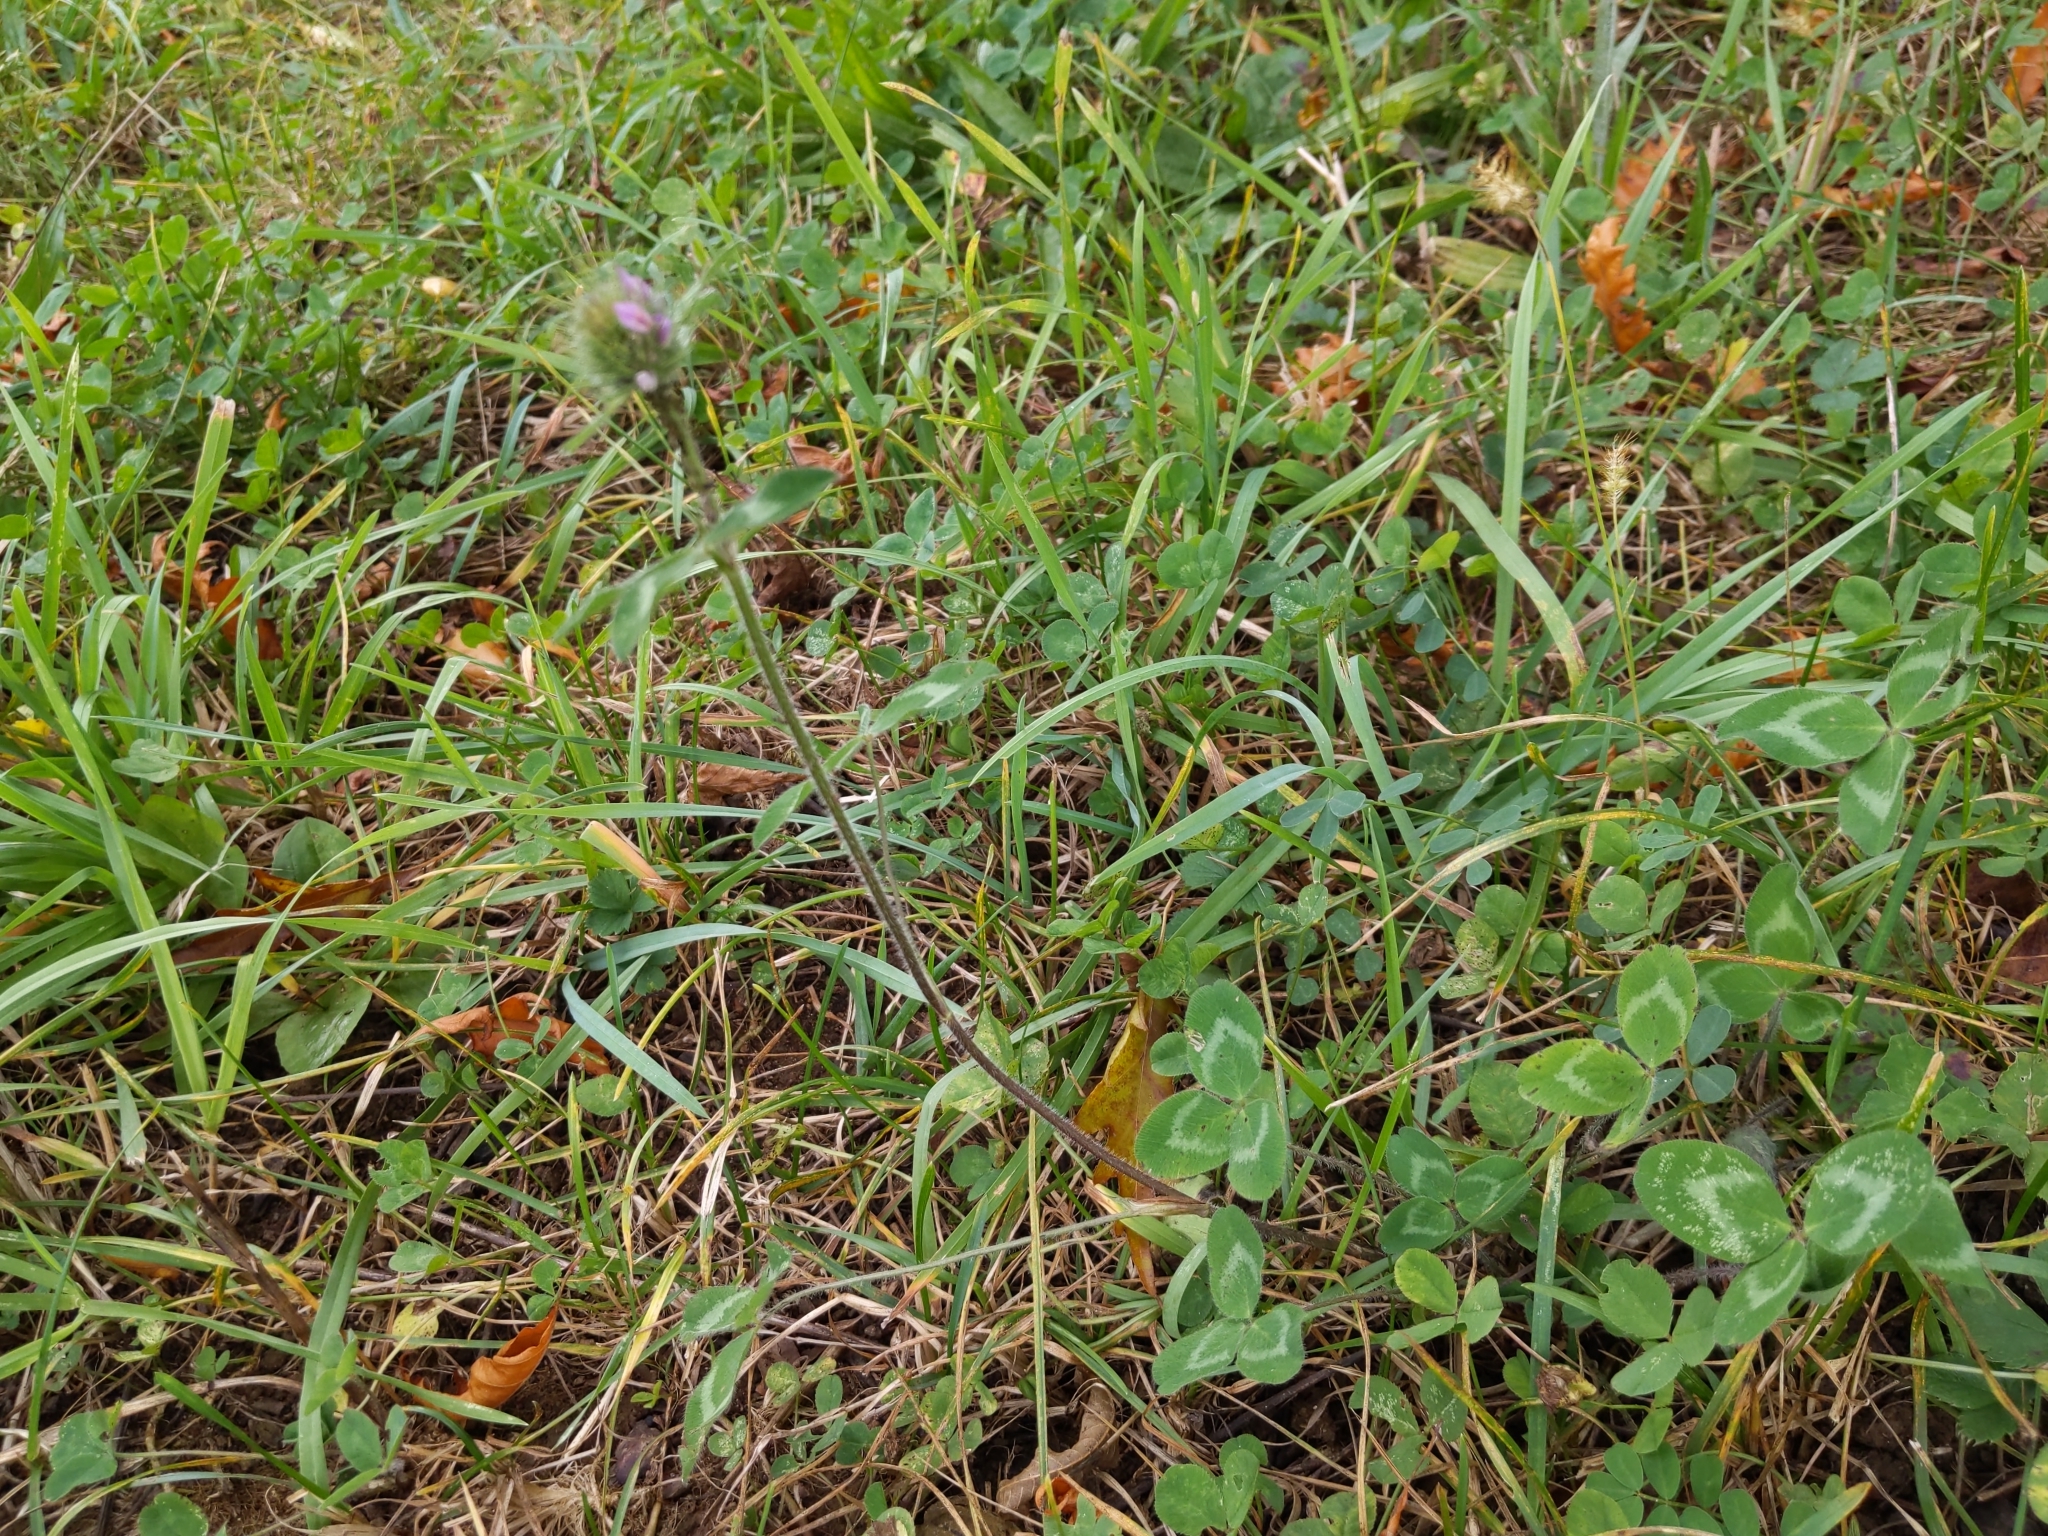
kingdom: Plantae
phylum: Tracheophyta
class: Magnoliopsida
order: Fabales
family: Fabaceae
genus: Trifolium
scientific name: Trifolium pratense
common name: Red clover
